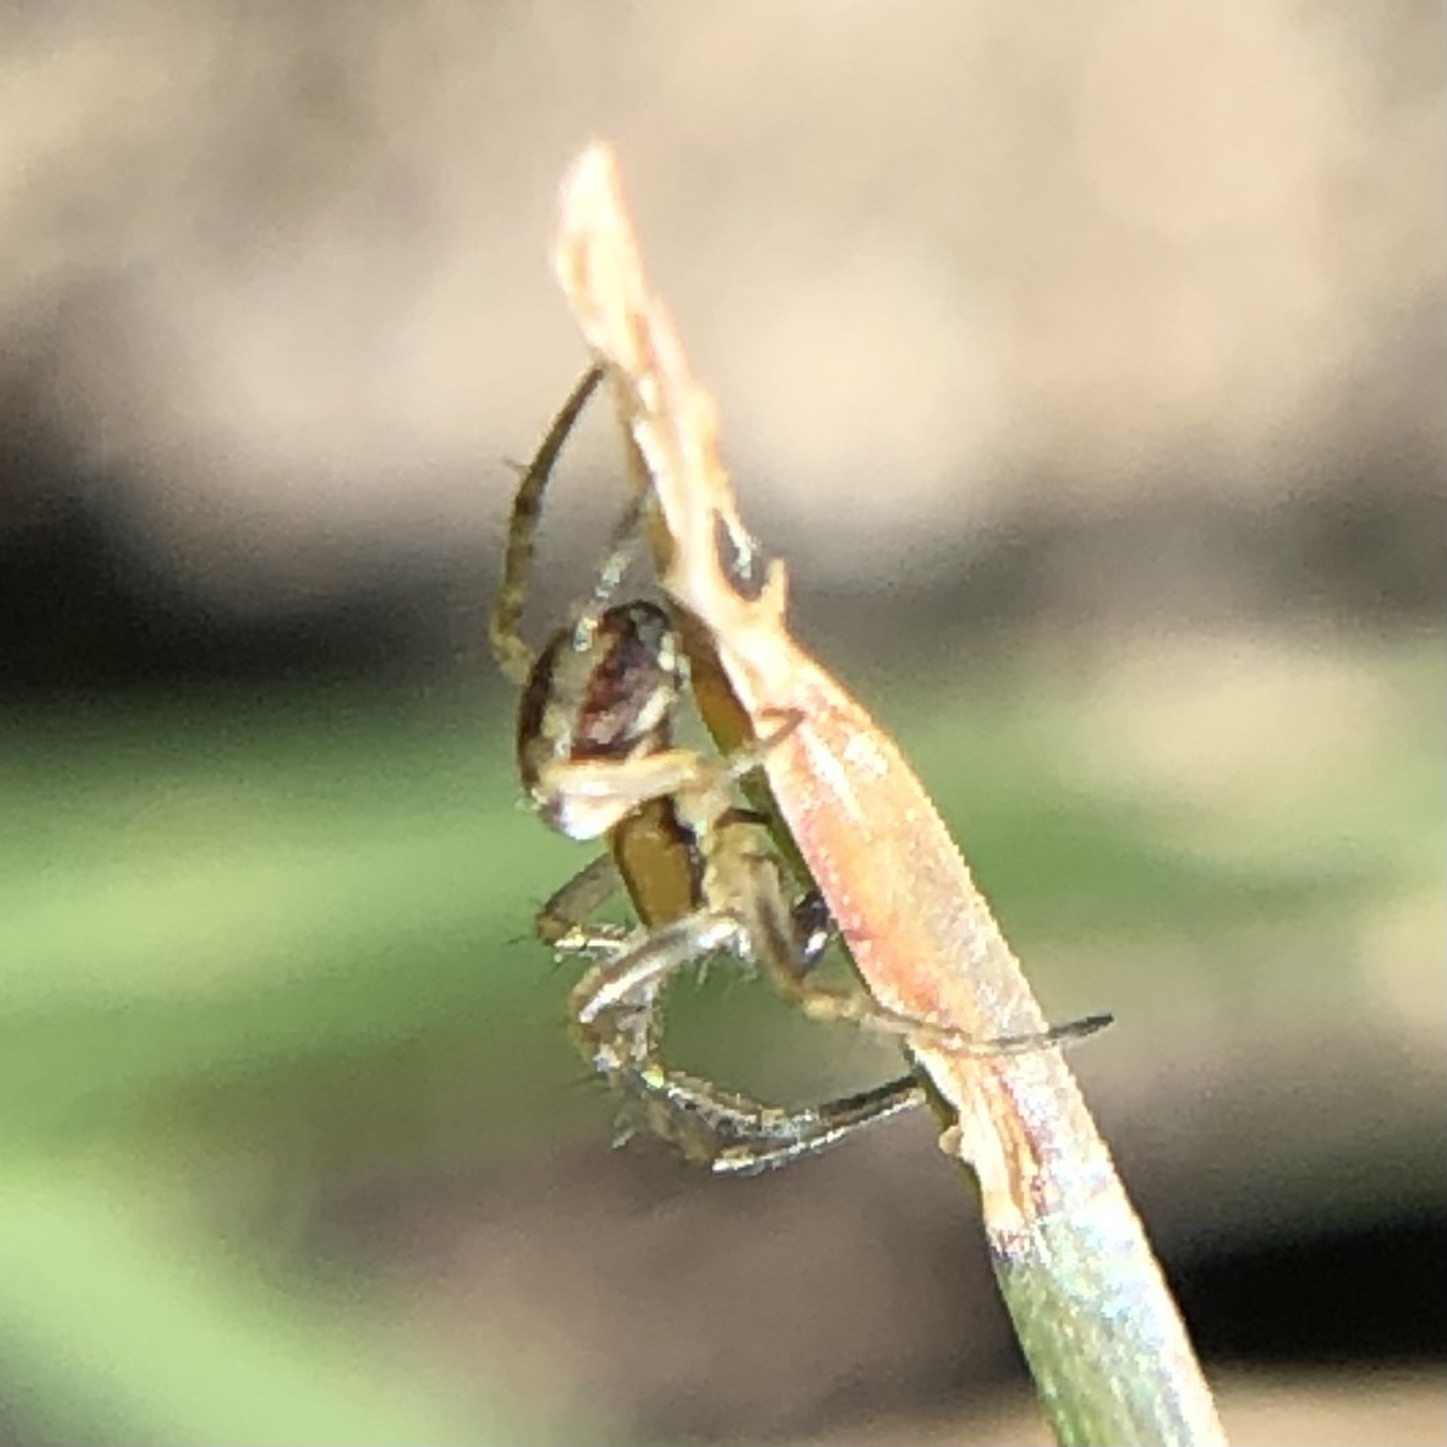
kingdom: Animalia
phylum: Arthropoda
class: Arachnida
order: Araneae
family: Araneidae
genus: Mangora
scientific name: Mangora acalypha
